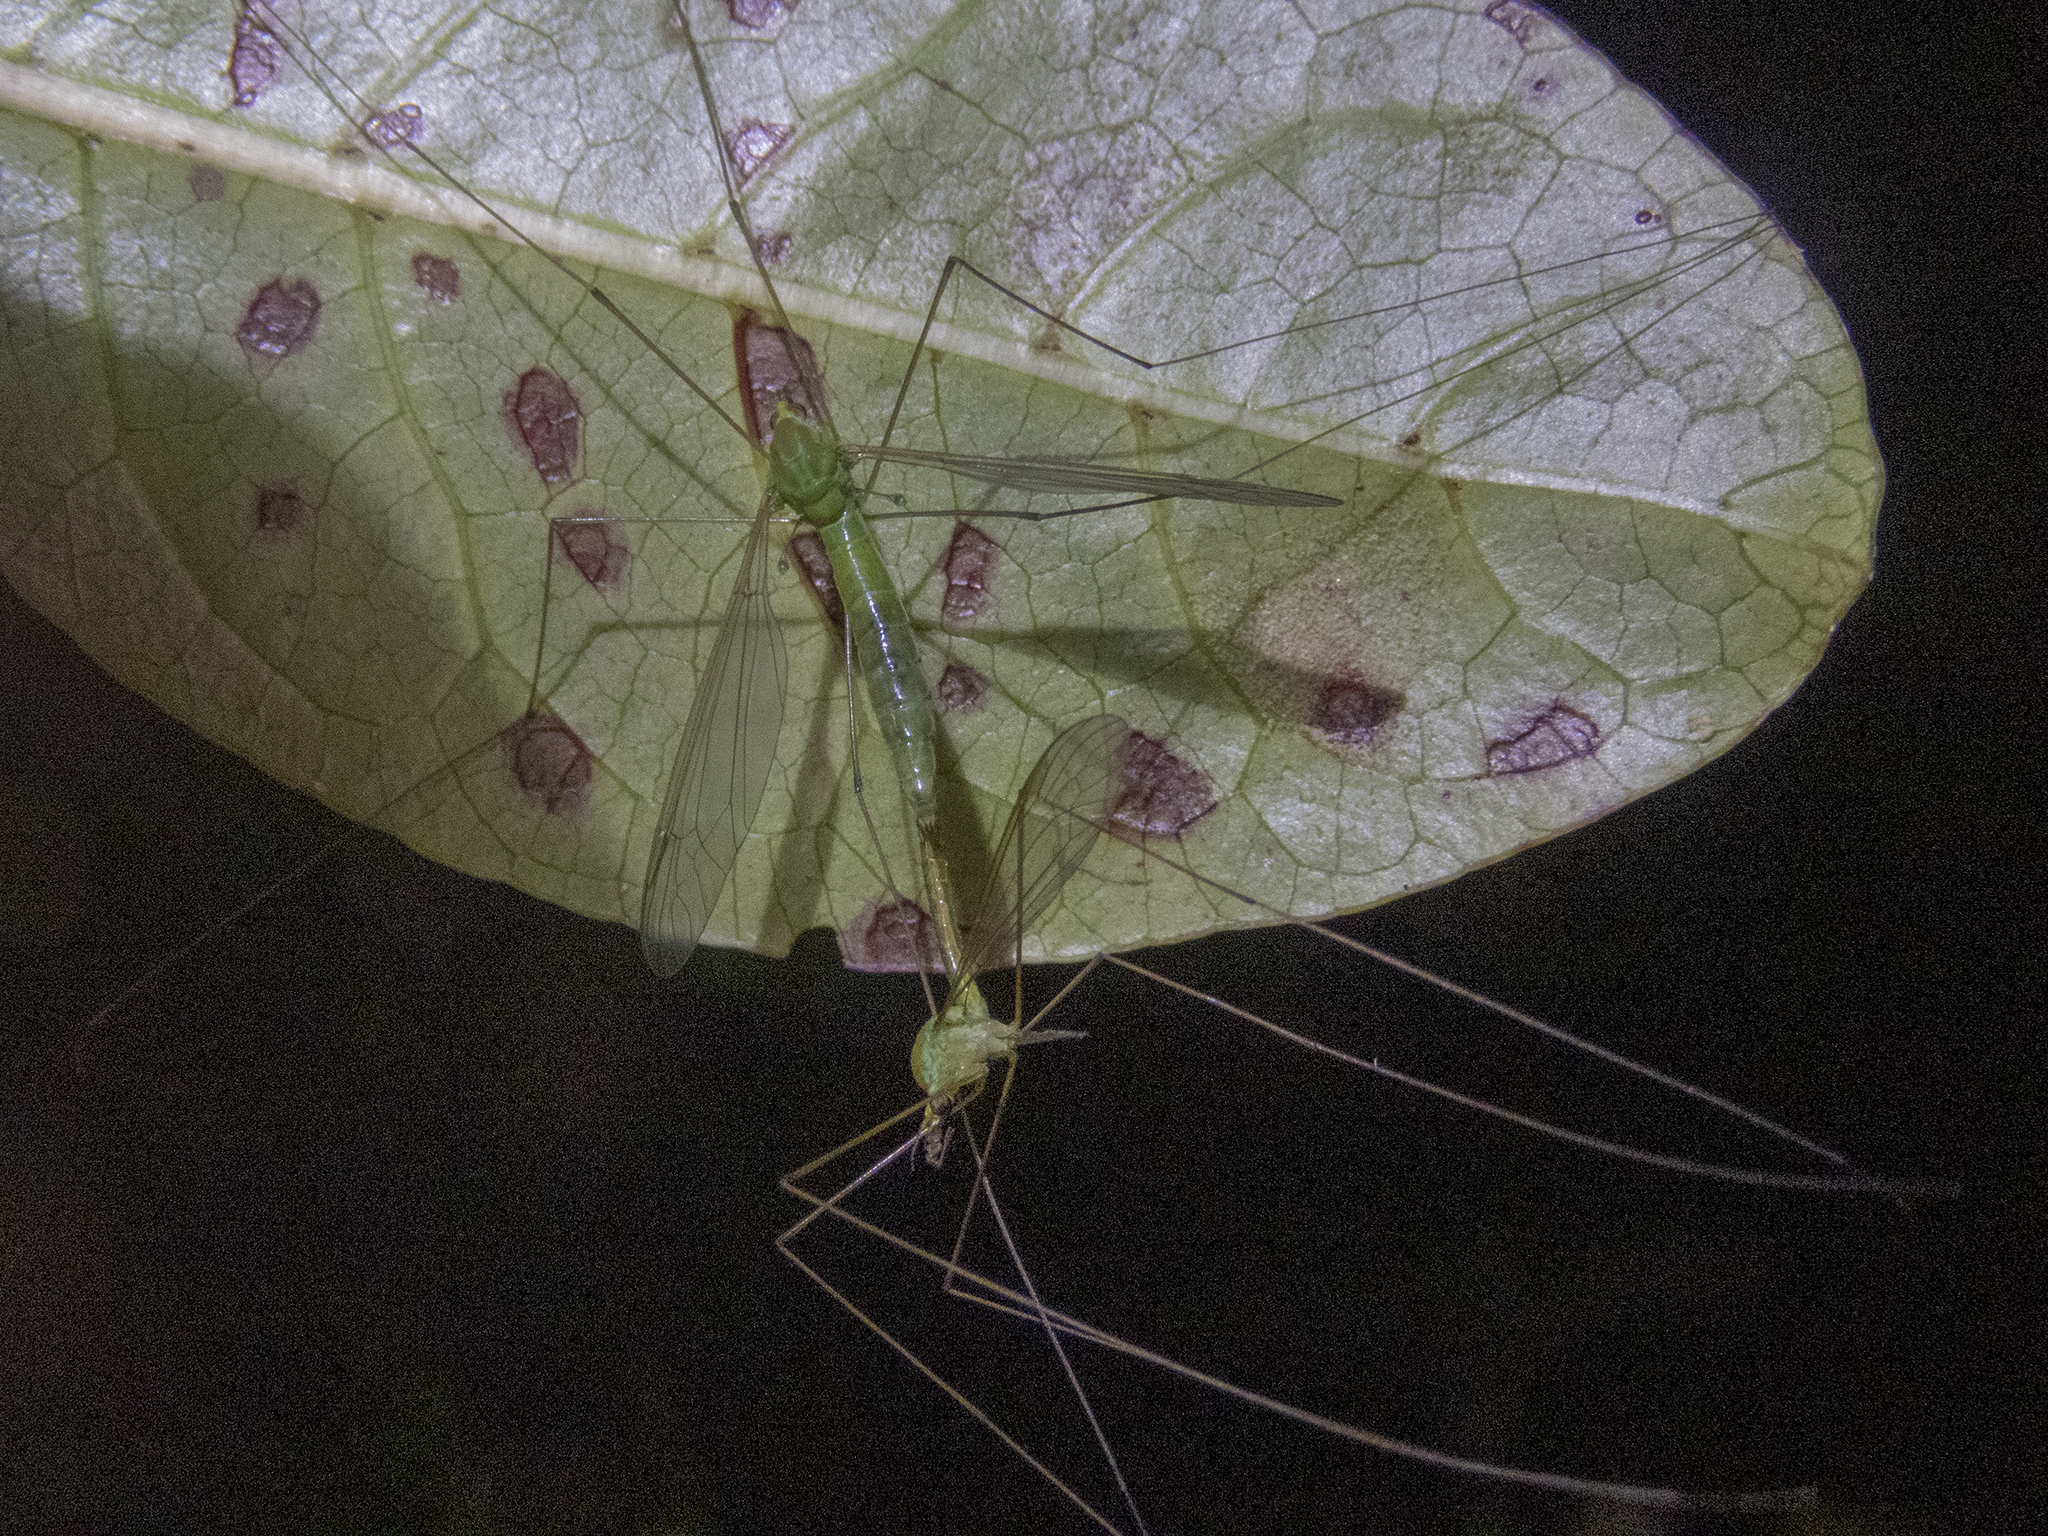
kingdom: Animalia
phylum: Arthropoda
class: Insecta
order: Diptera
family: Tipulidae
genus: Leptotarsus
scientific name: Leptotarsus holochlorus
